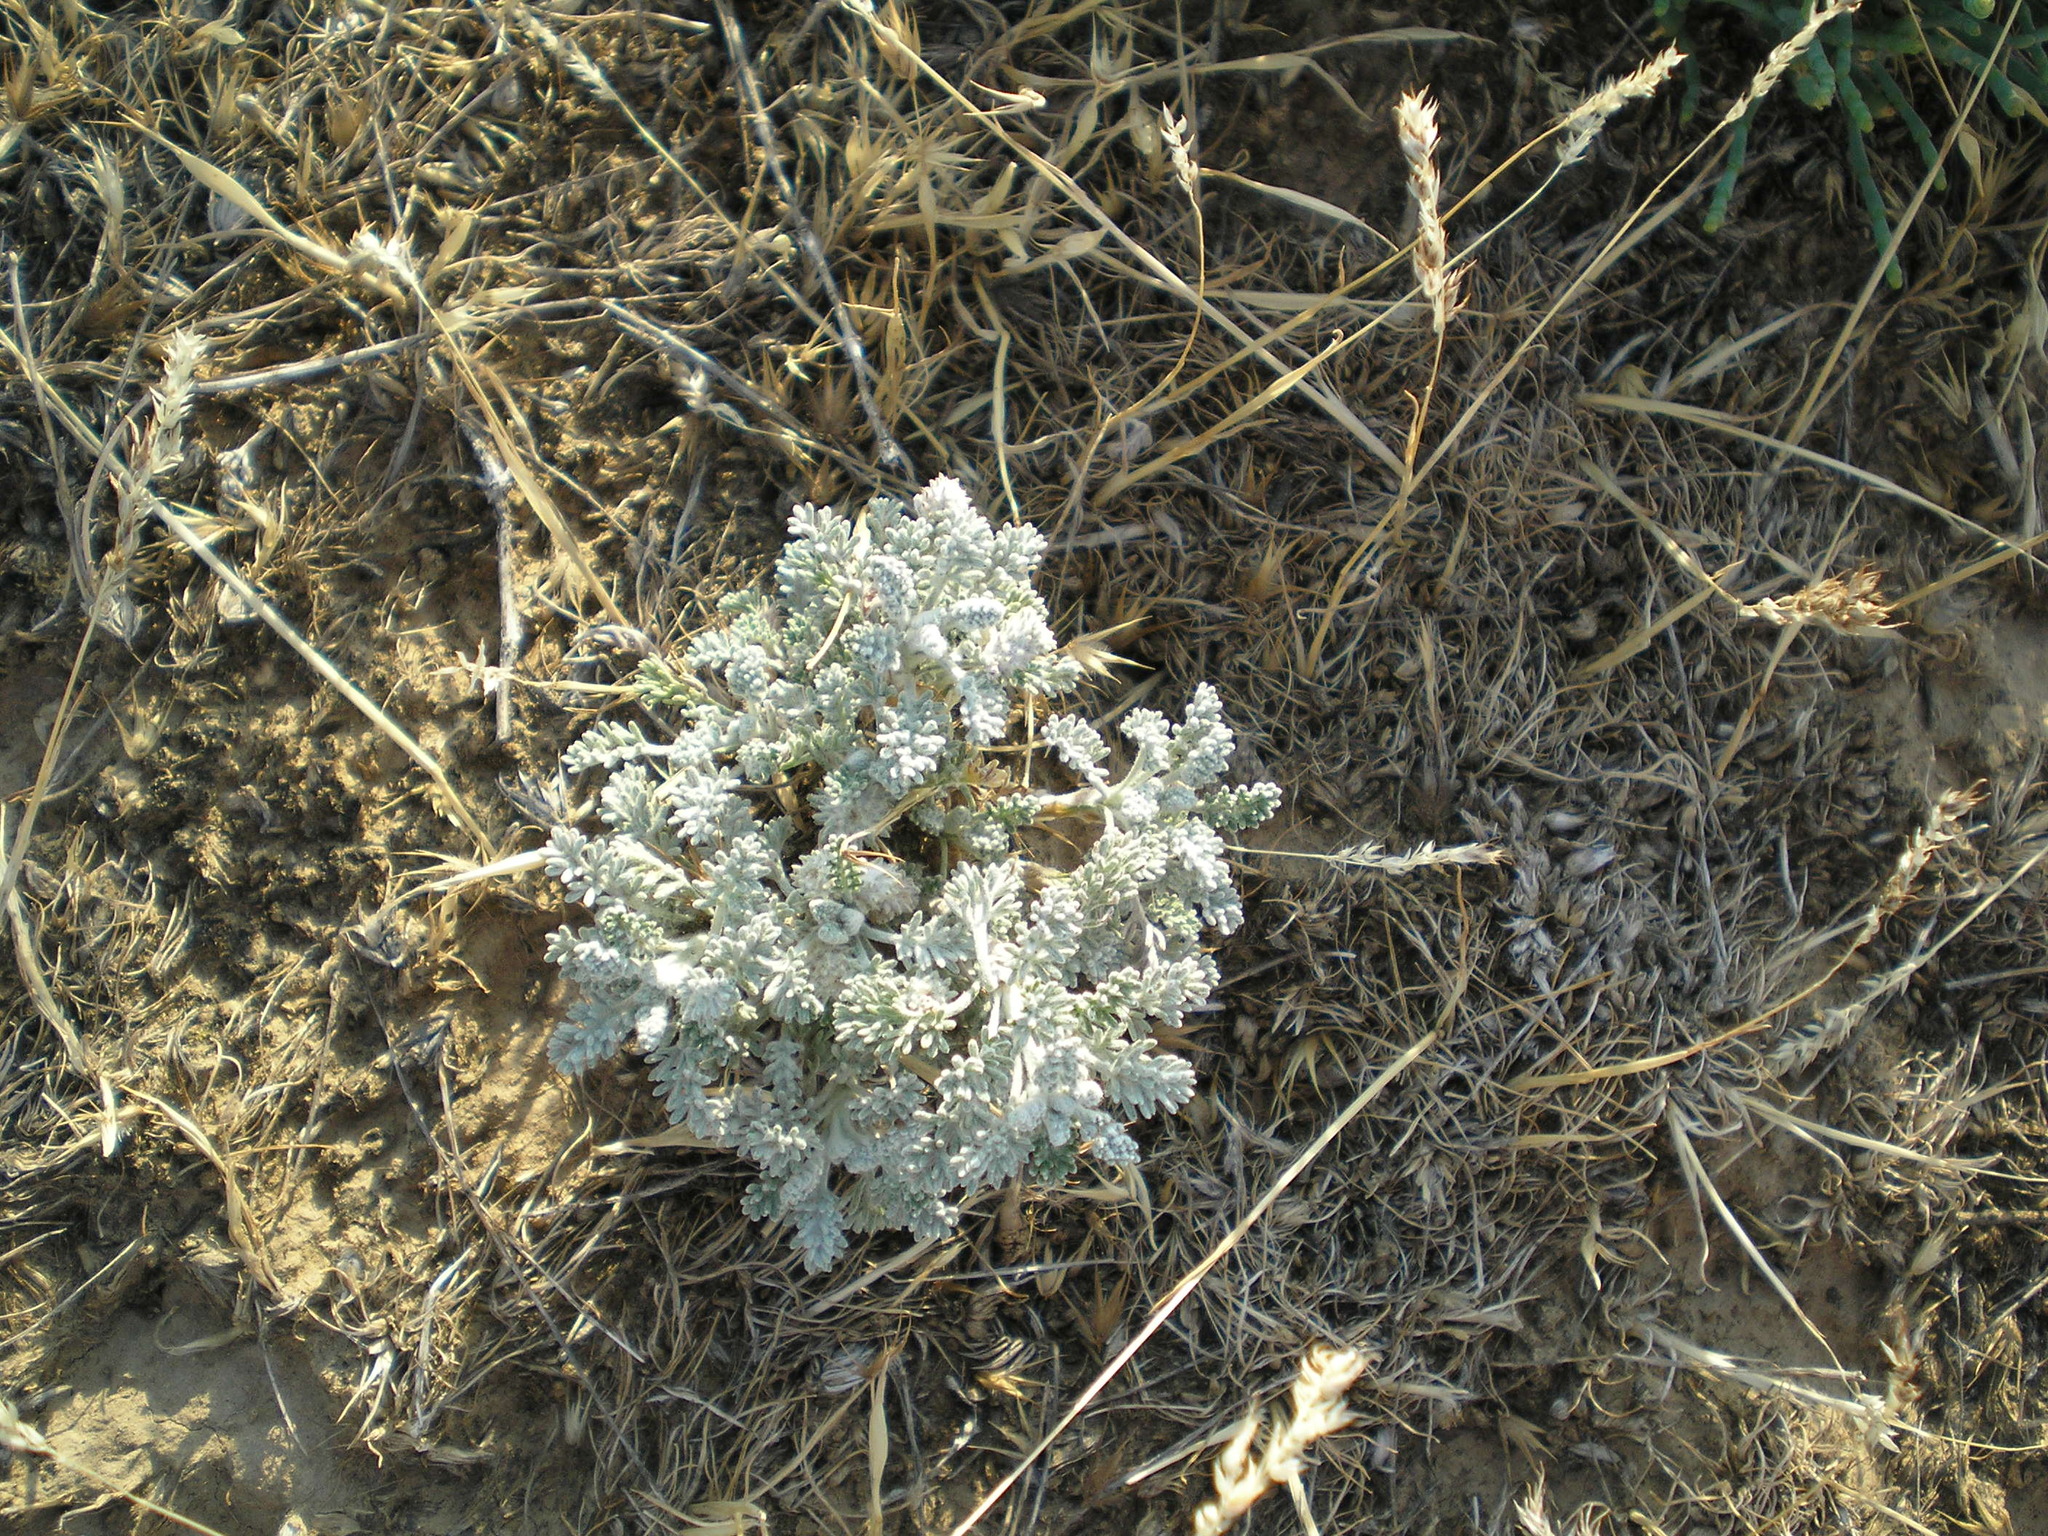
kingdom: Plantae
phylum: Tracheophyta
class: Magnoliopsida
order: Asterales
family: Asteraceae
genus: Artemisia
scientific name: Artemisia fragrans
